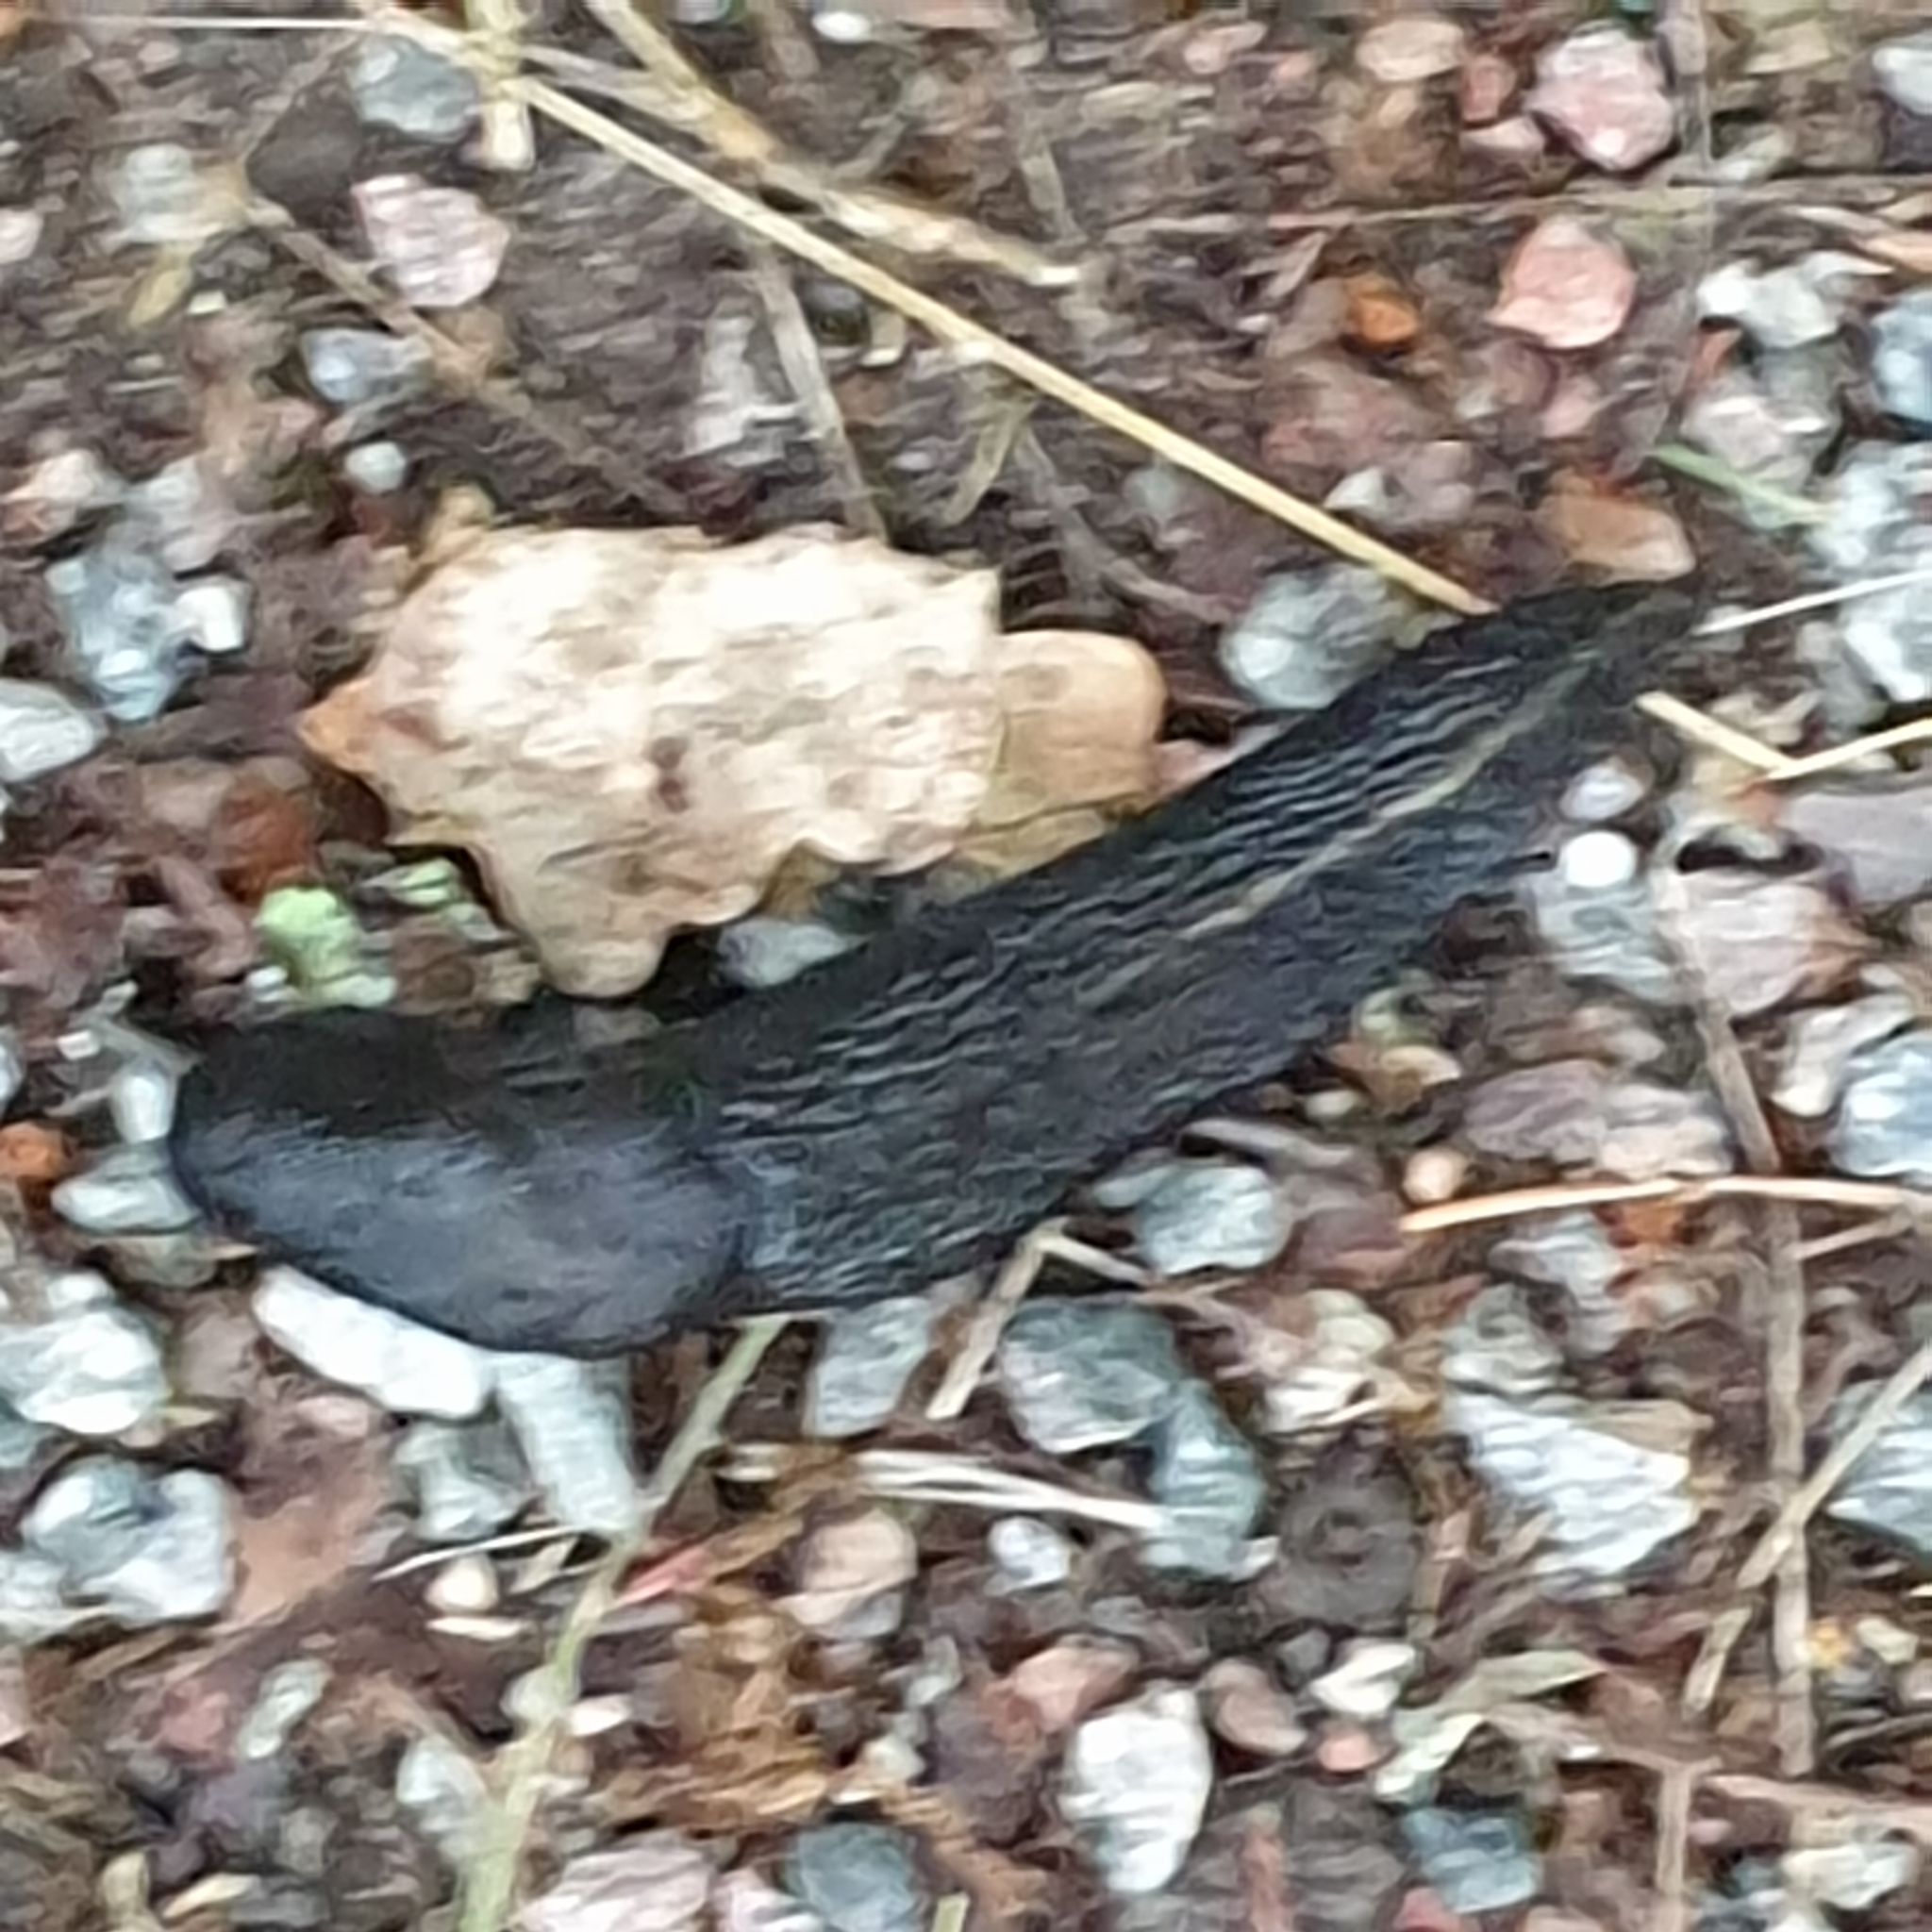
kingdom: Animalia
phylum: Mollusca
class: Gastropoda
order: Stylommatophora
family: Limacidae
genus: Limax
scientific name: Limax cinereoniger
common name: Ash-black slug
